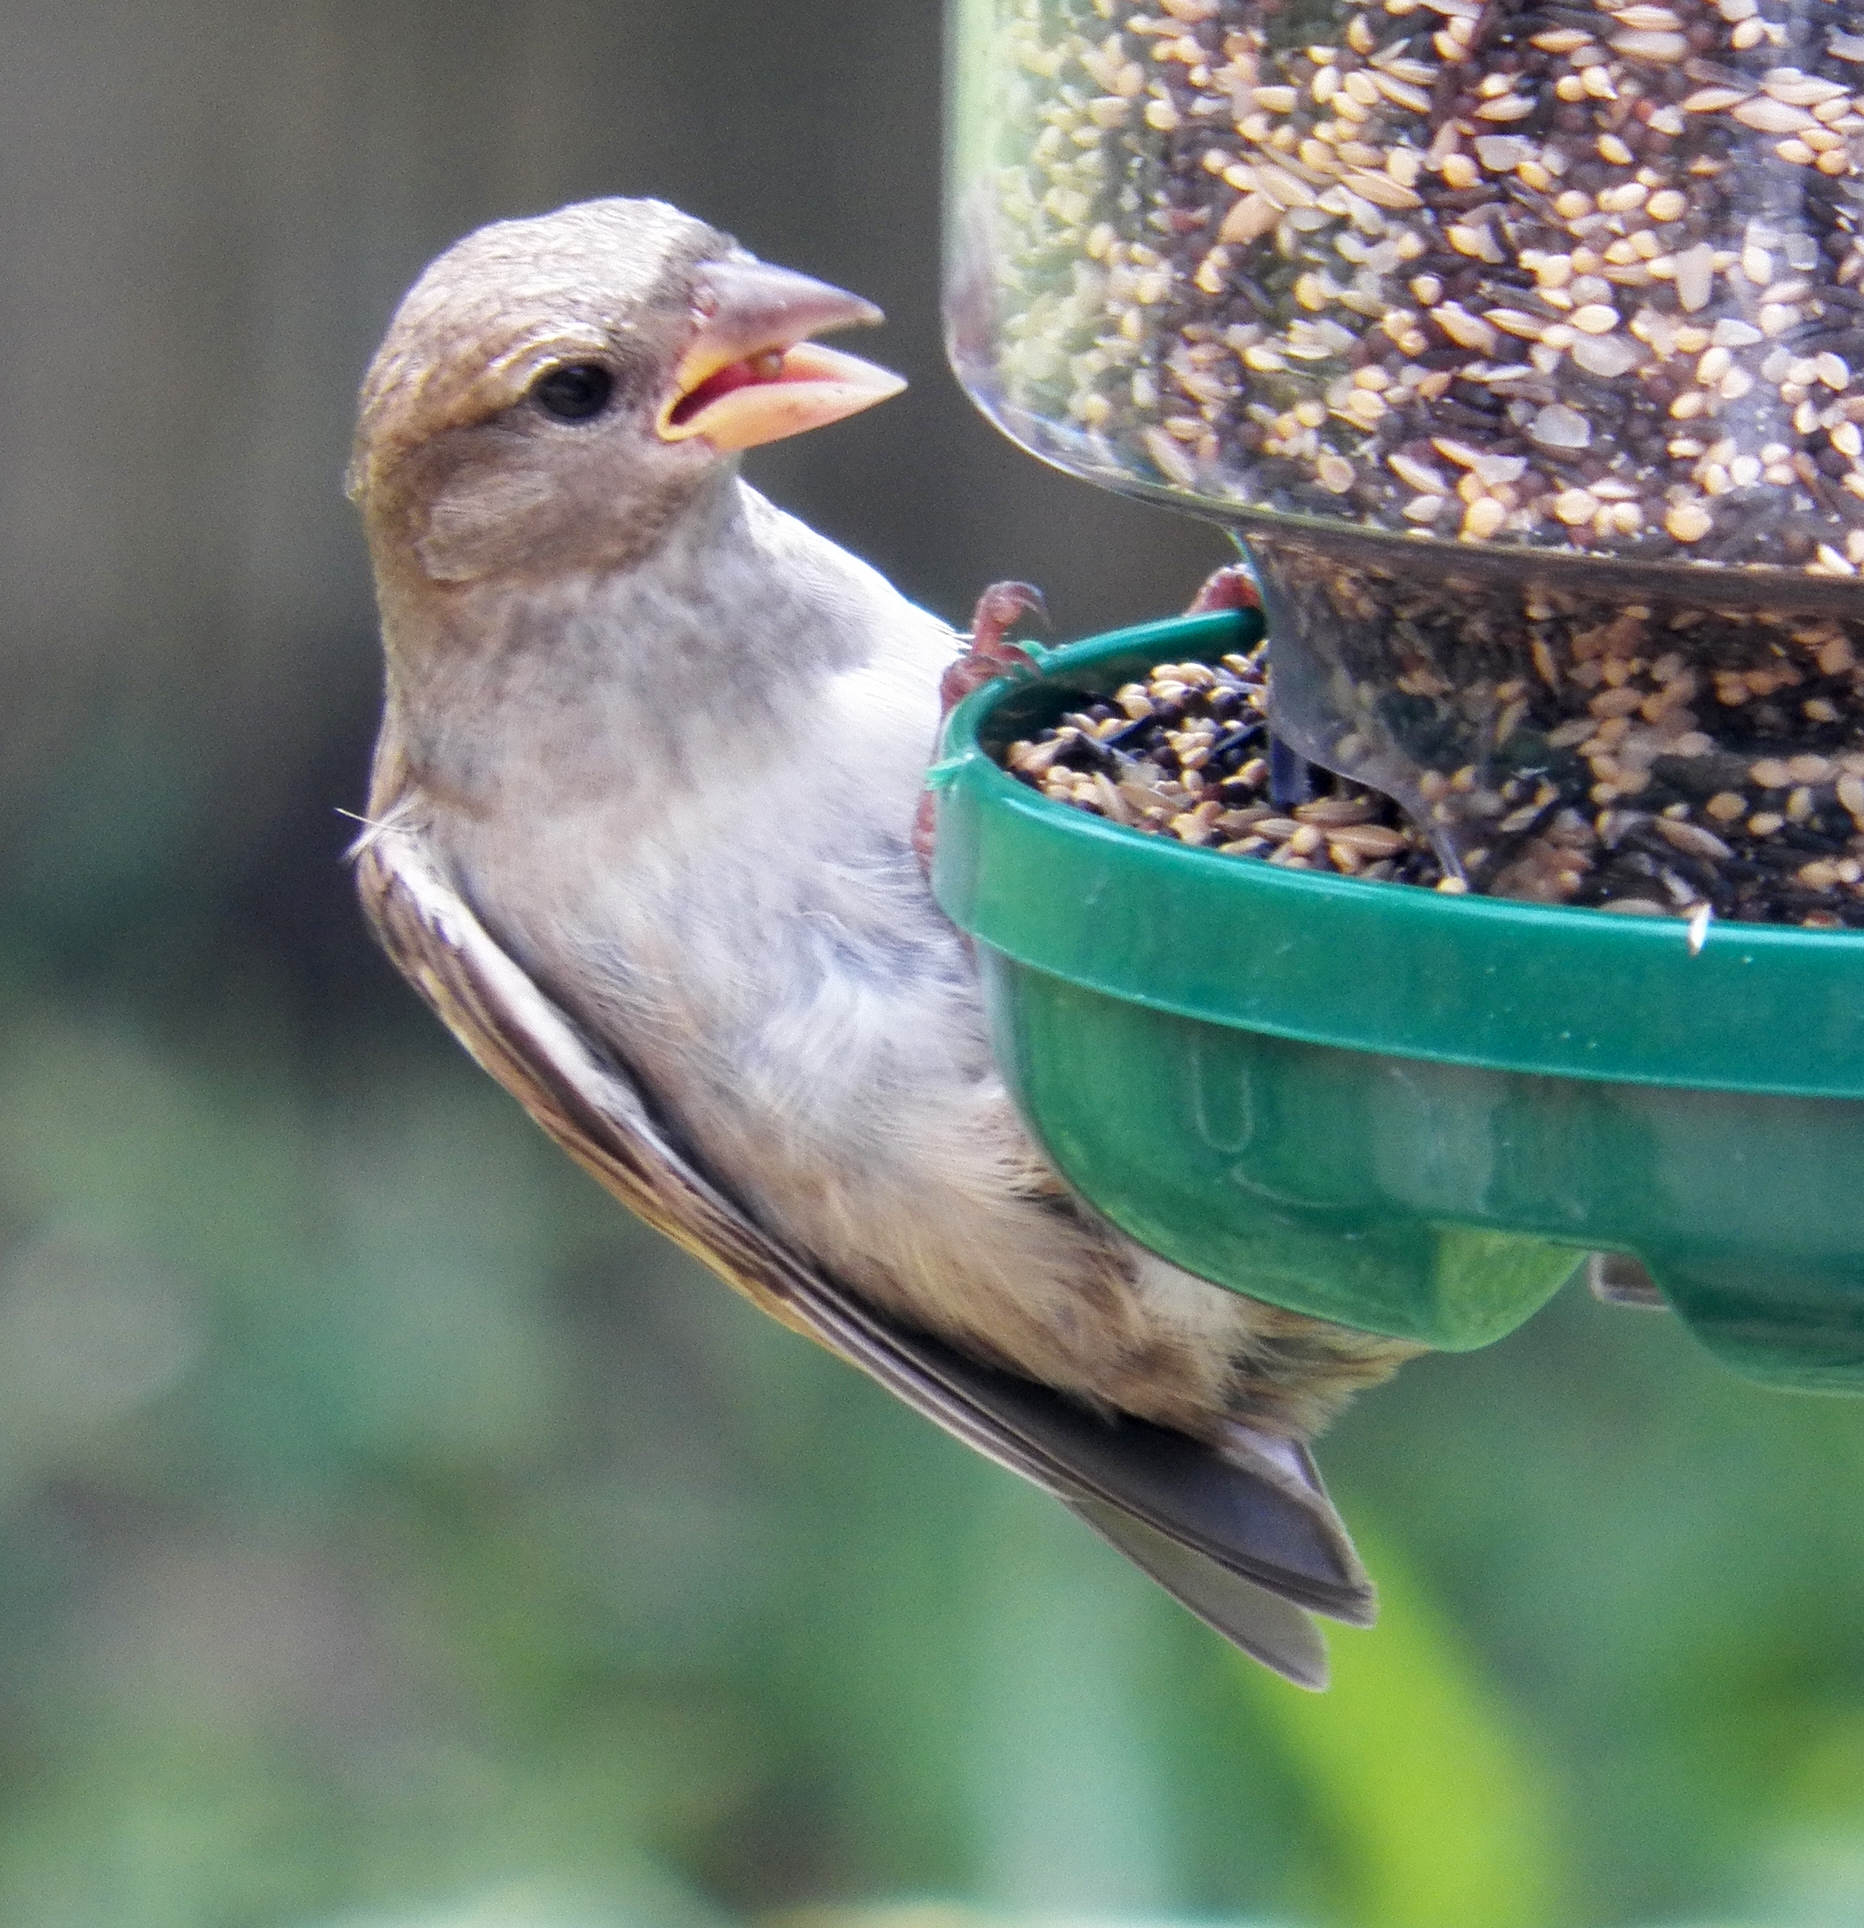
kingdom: Animalia
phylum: Chordata
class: Aves
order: Passeriformes
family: Passeridae
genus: Passer
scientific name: Passer domesticus
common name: House sparrow
